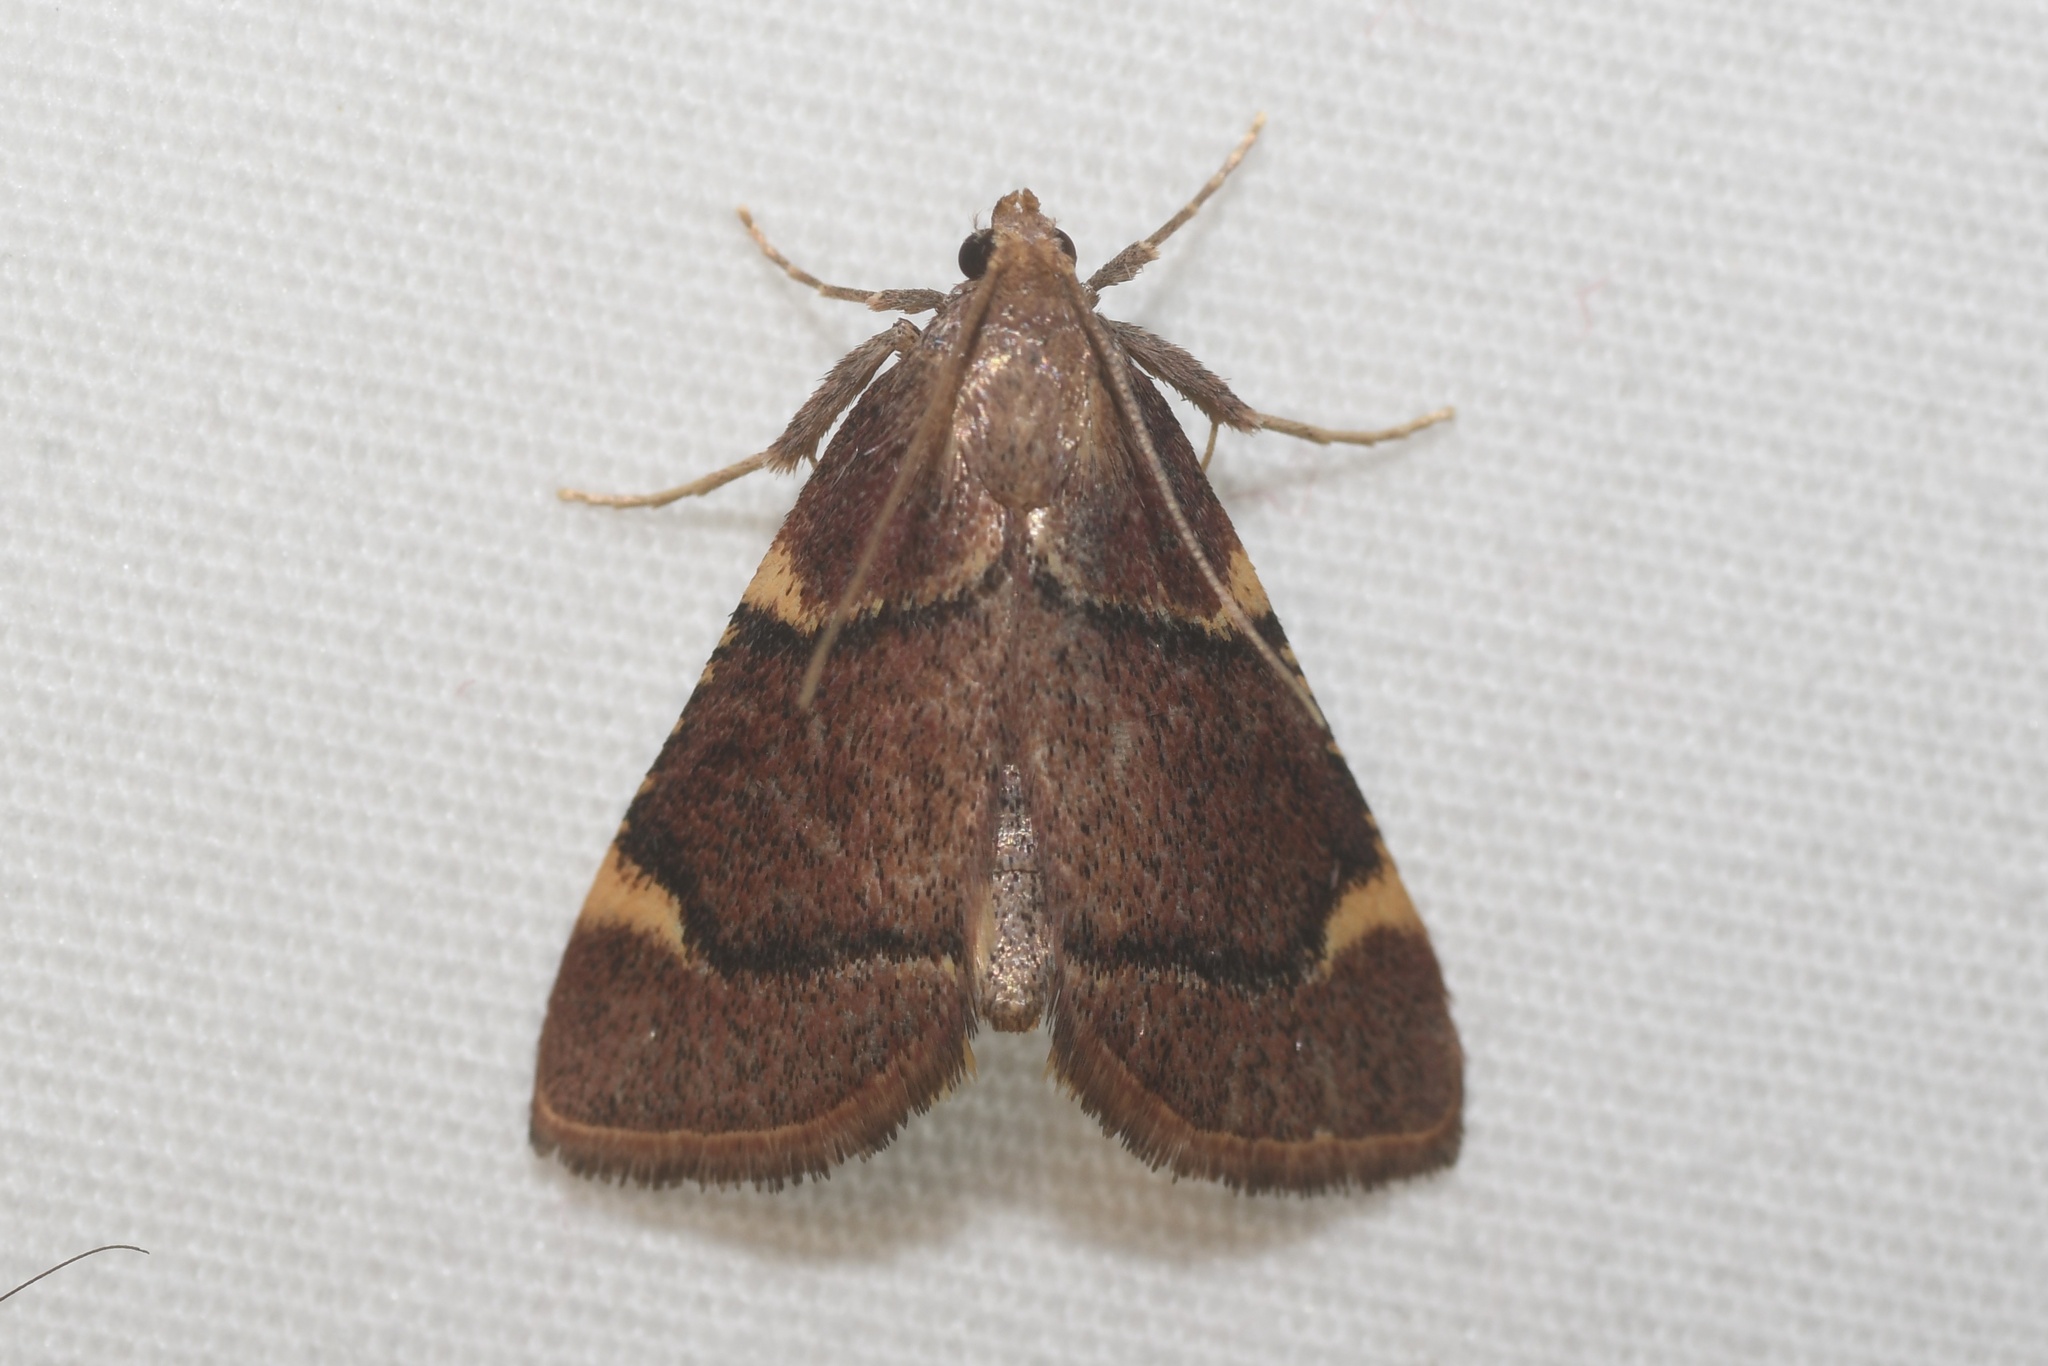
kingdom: Animalia
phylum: Arthropoda
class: Insecta
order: Lepidoptera
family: Pyralidae
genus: Hypsopygia
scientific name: Hypsopygia thymetusalis
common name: Spruce needleworm moth
